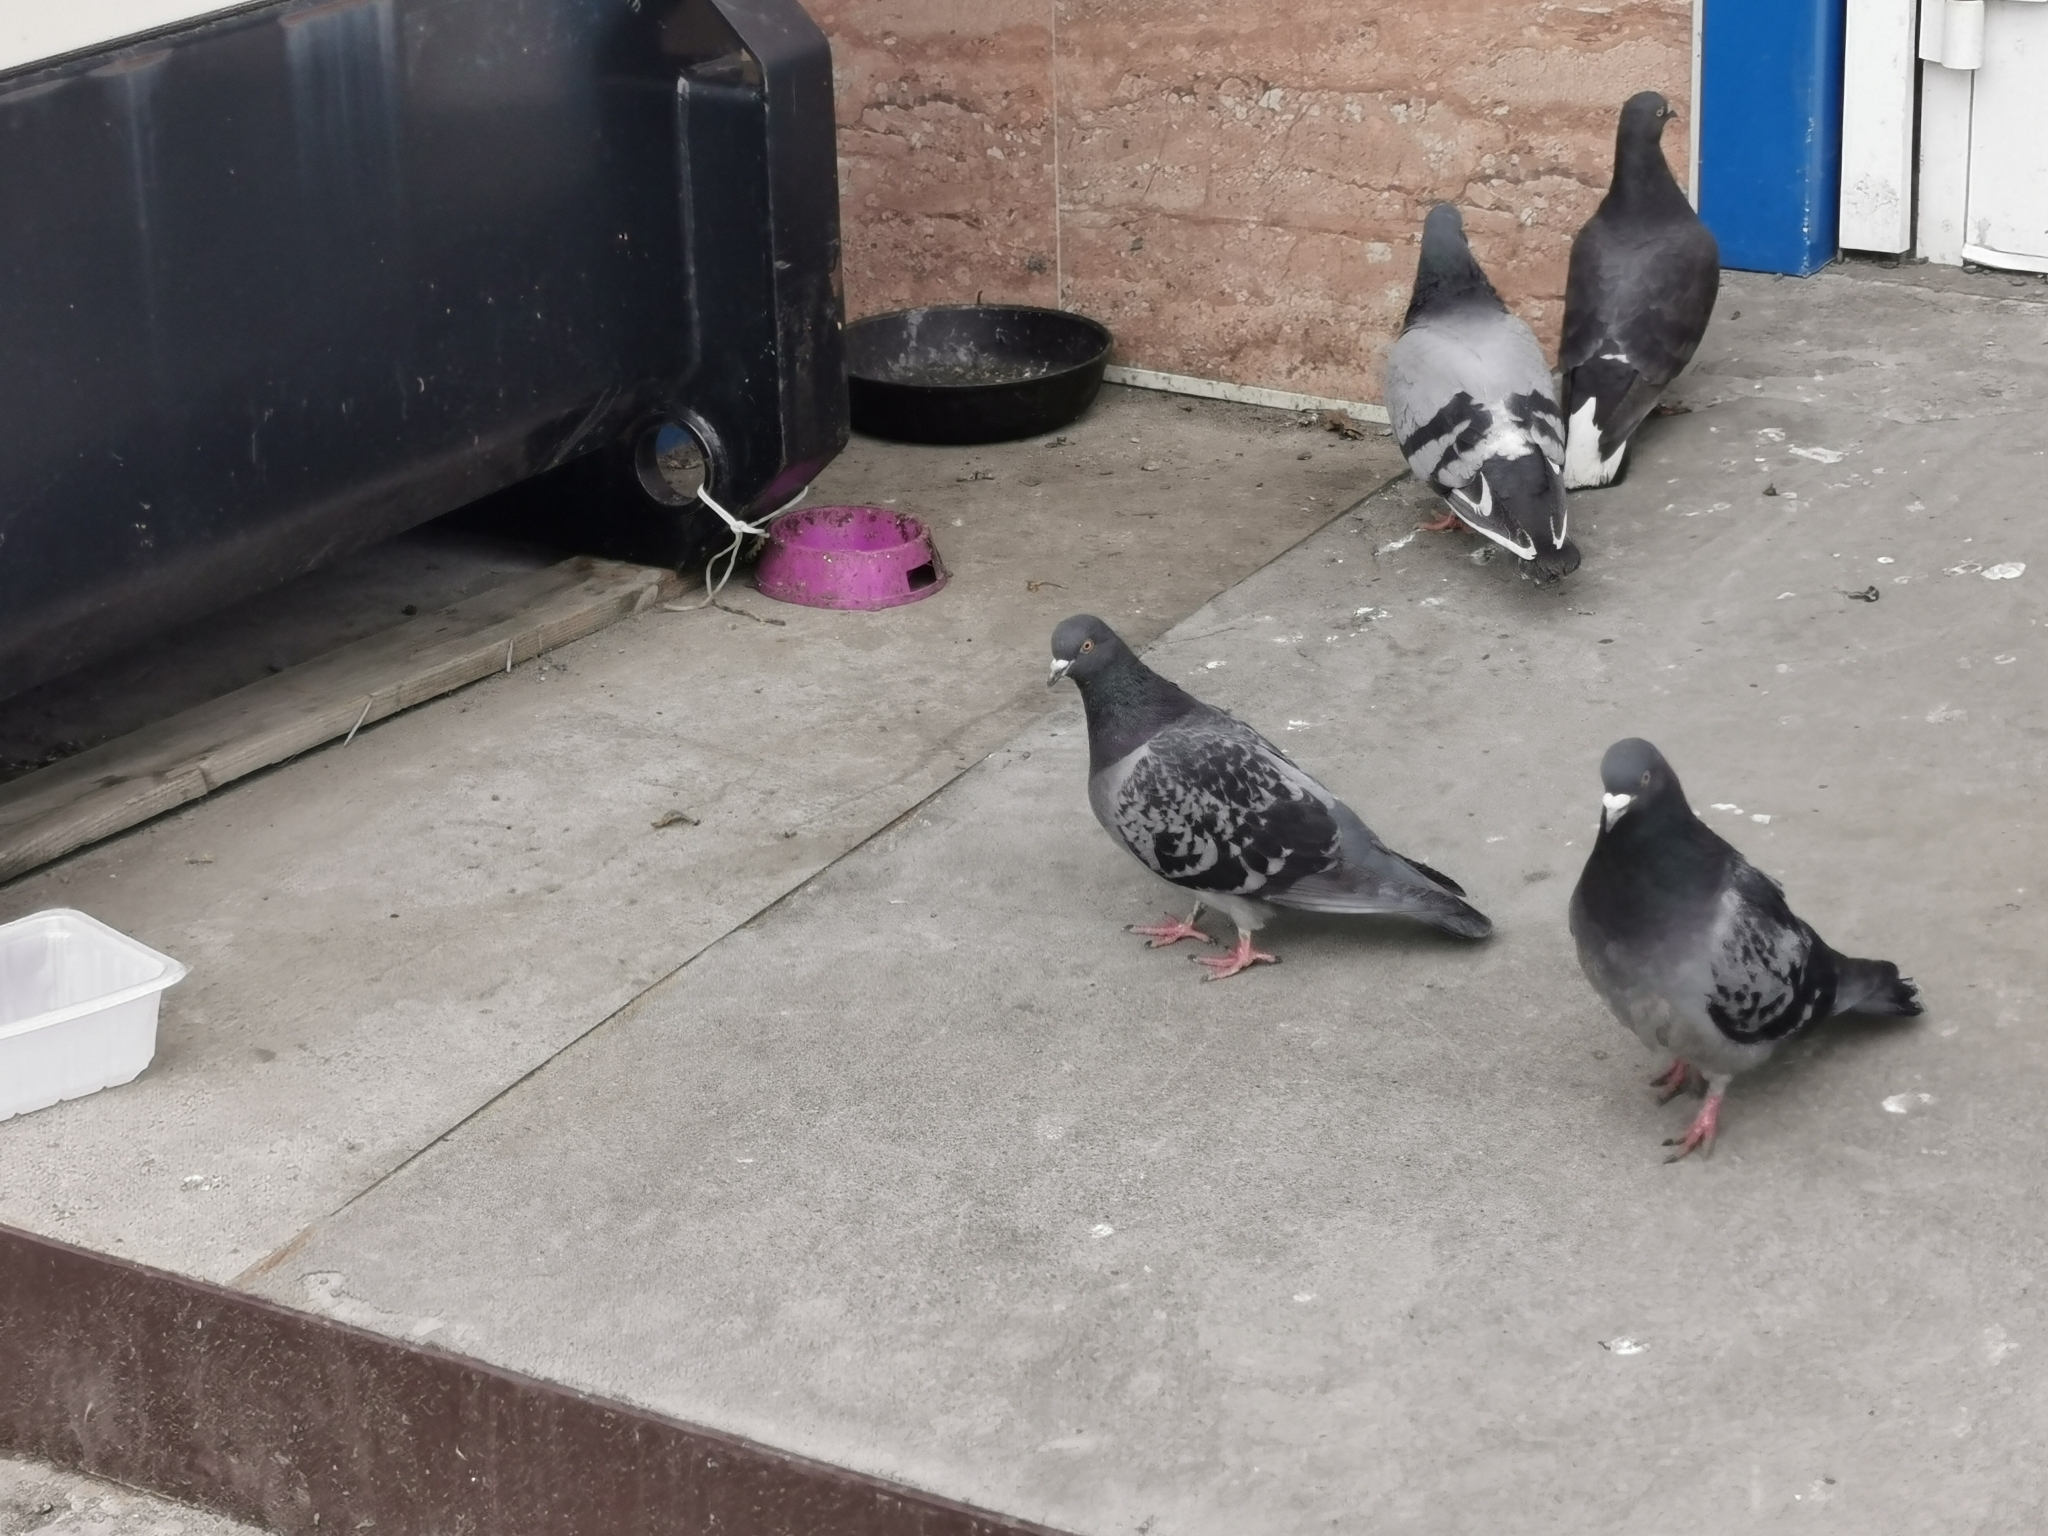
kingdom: Animalia
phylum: Chordata
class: Aves
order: Columbiformes
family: Columbidae
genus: Columba
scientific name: Columba livia
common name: Rock pigeon
